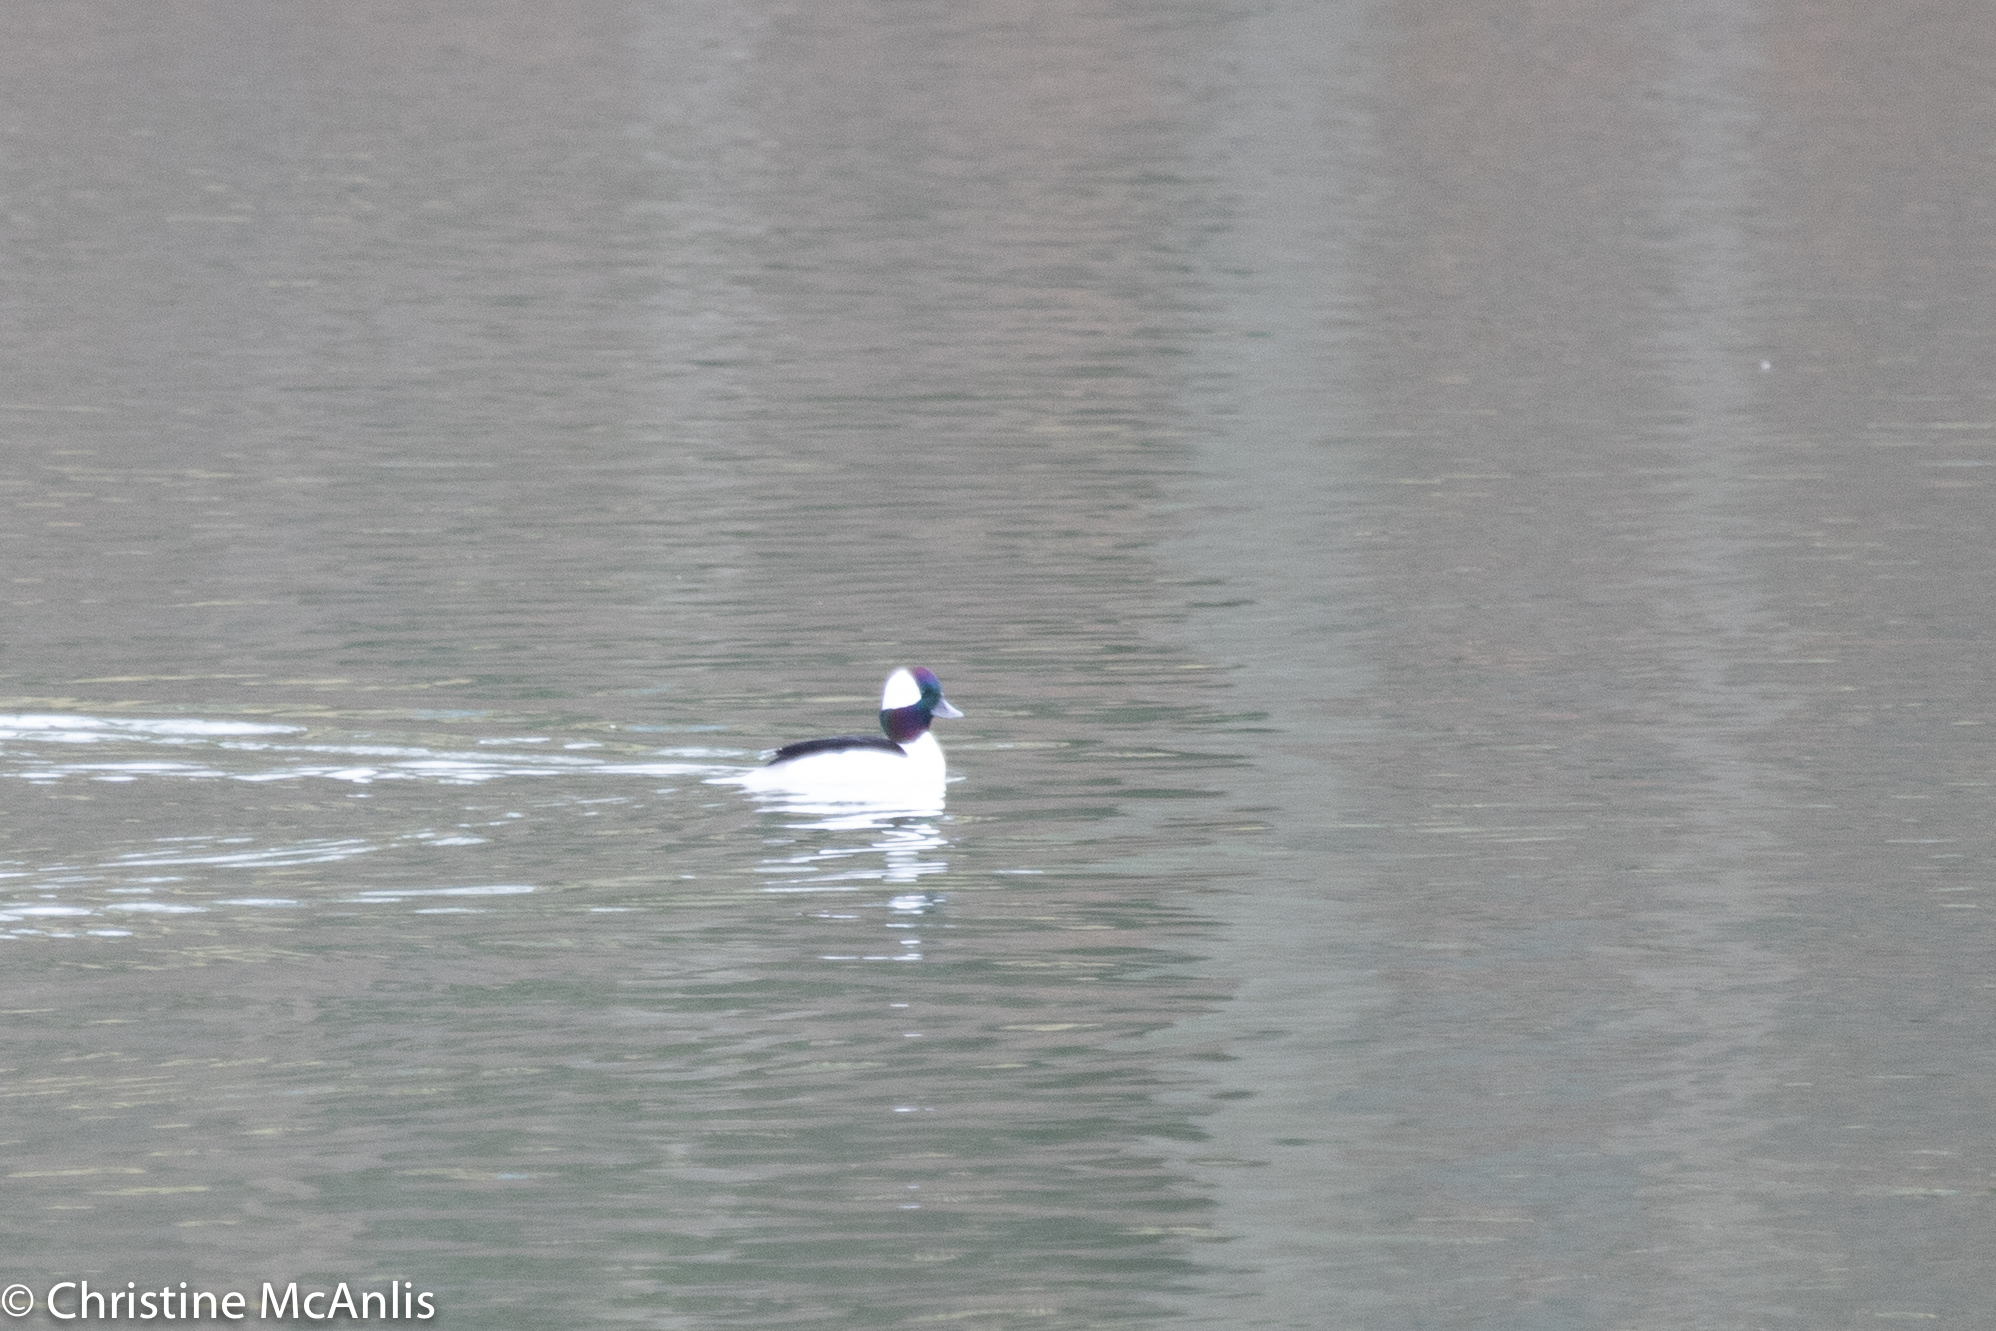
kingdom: Animalia
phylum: Chordata
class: Aves
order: Anseriformes
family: Anatidae
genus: Bucephala
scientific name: Bucephala albeola
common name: Bufflehead
